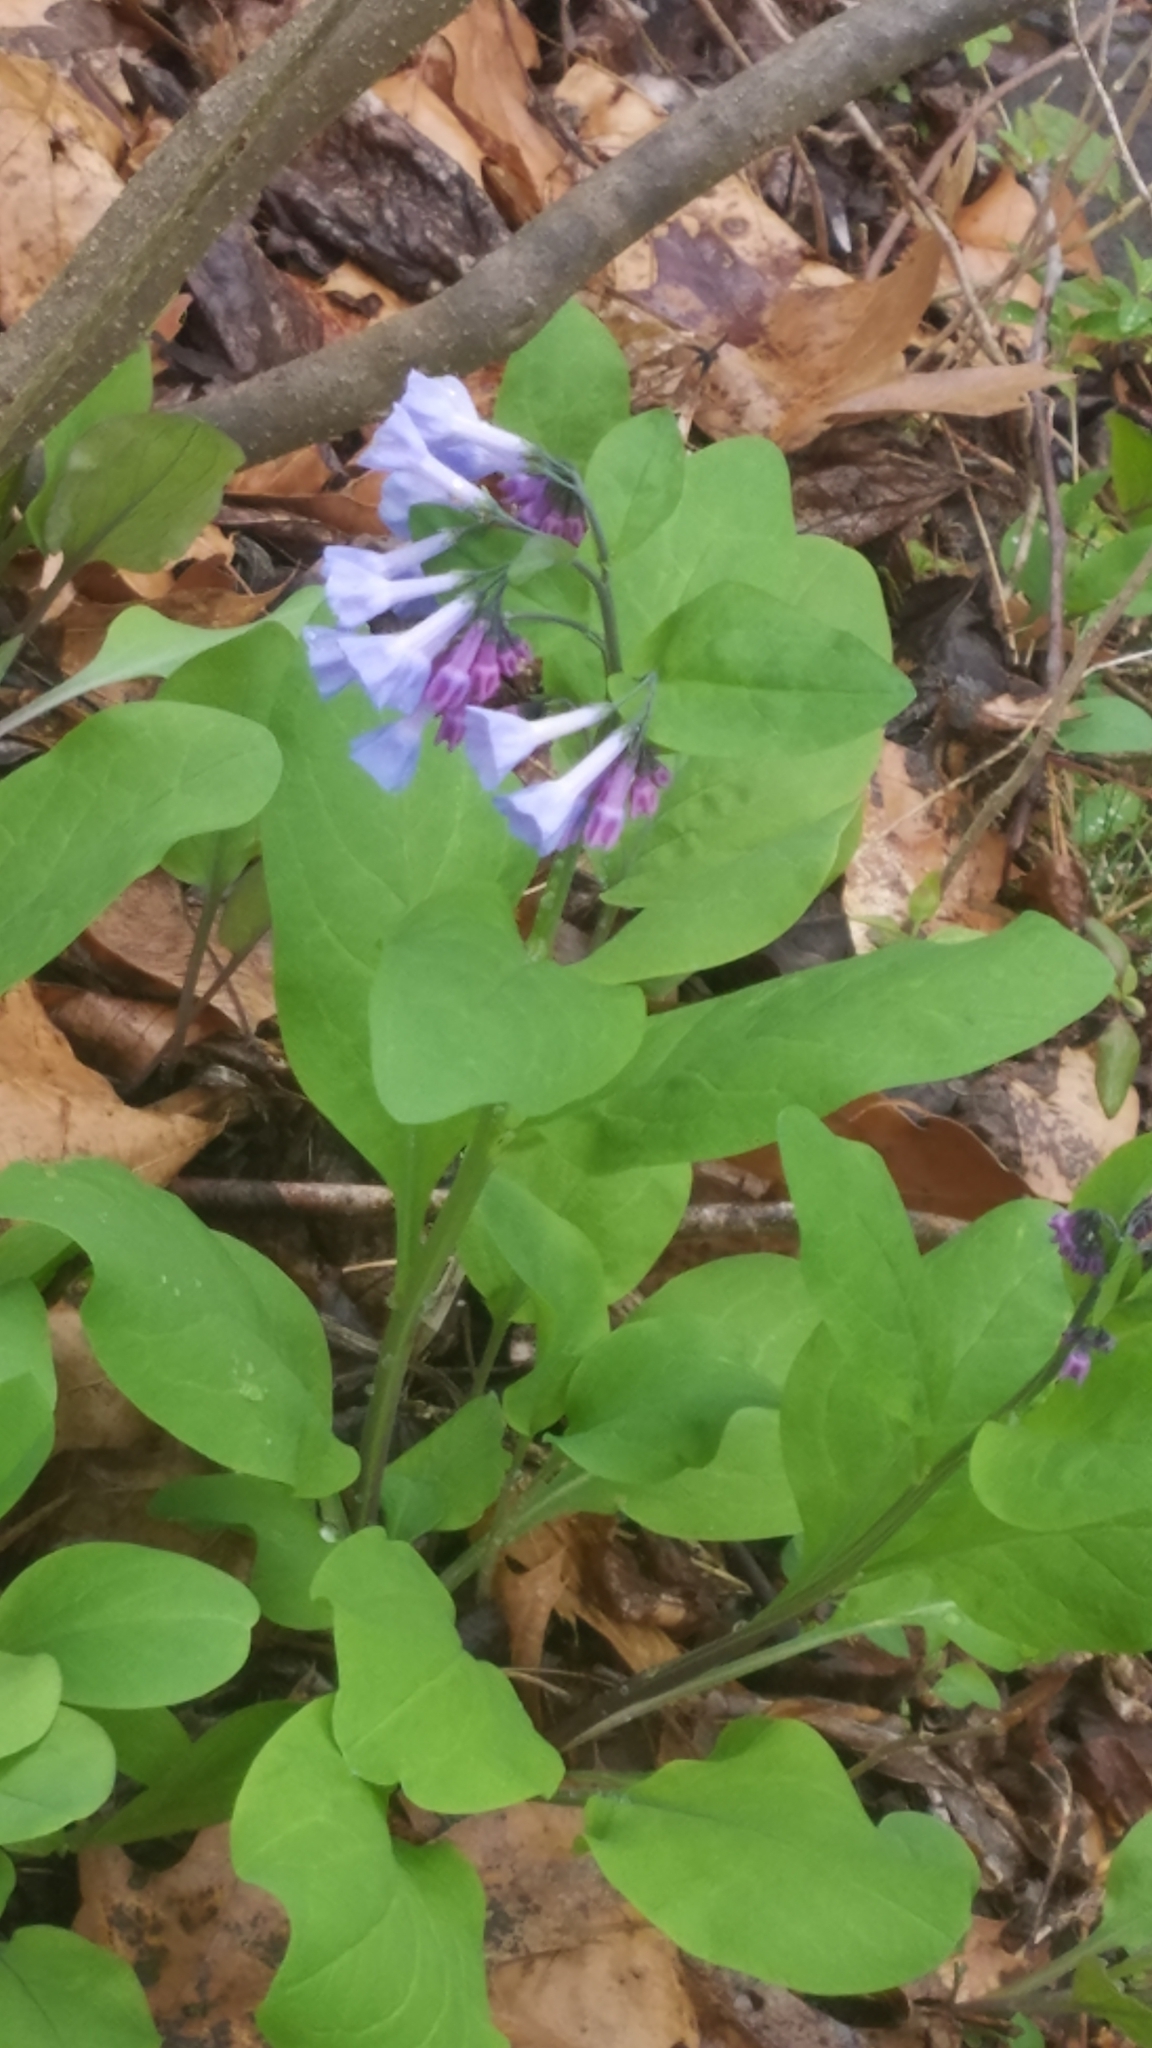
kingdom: Plantae
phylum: Tracheophyta
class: Magnoliopsida
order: Boraginales
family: Boraginaceae
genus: Mertensia
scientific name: Mertensia virginica
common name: Virginia bluebells
